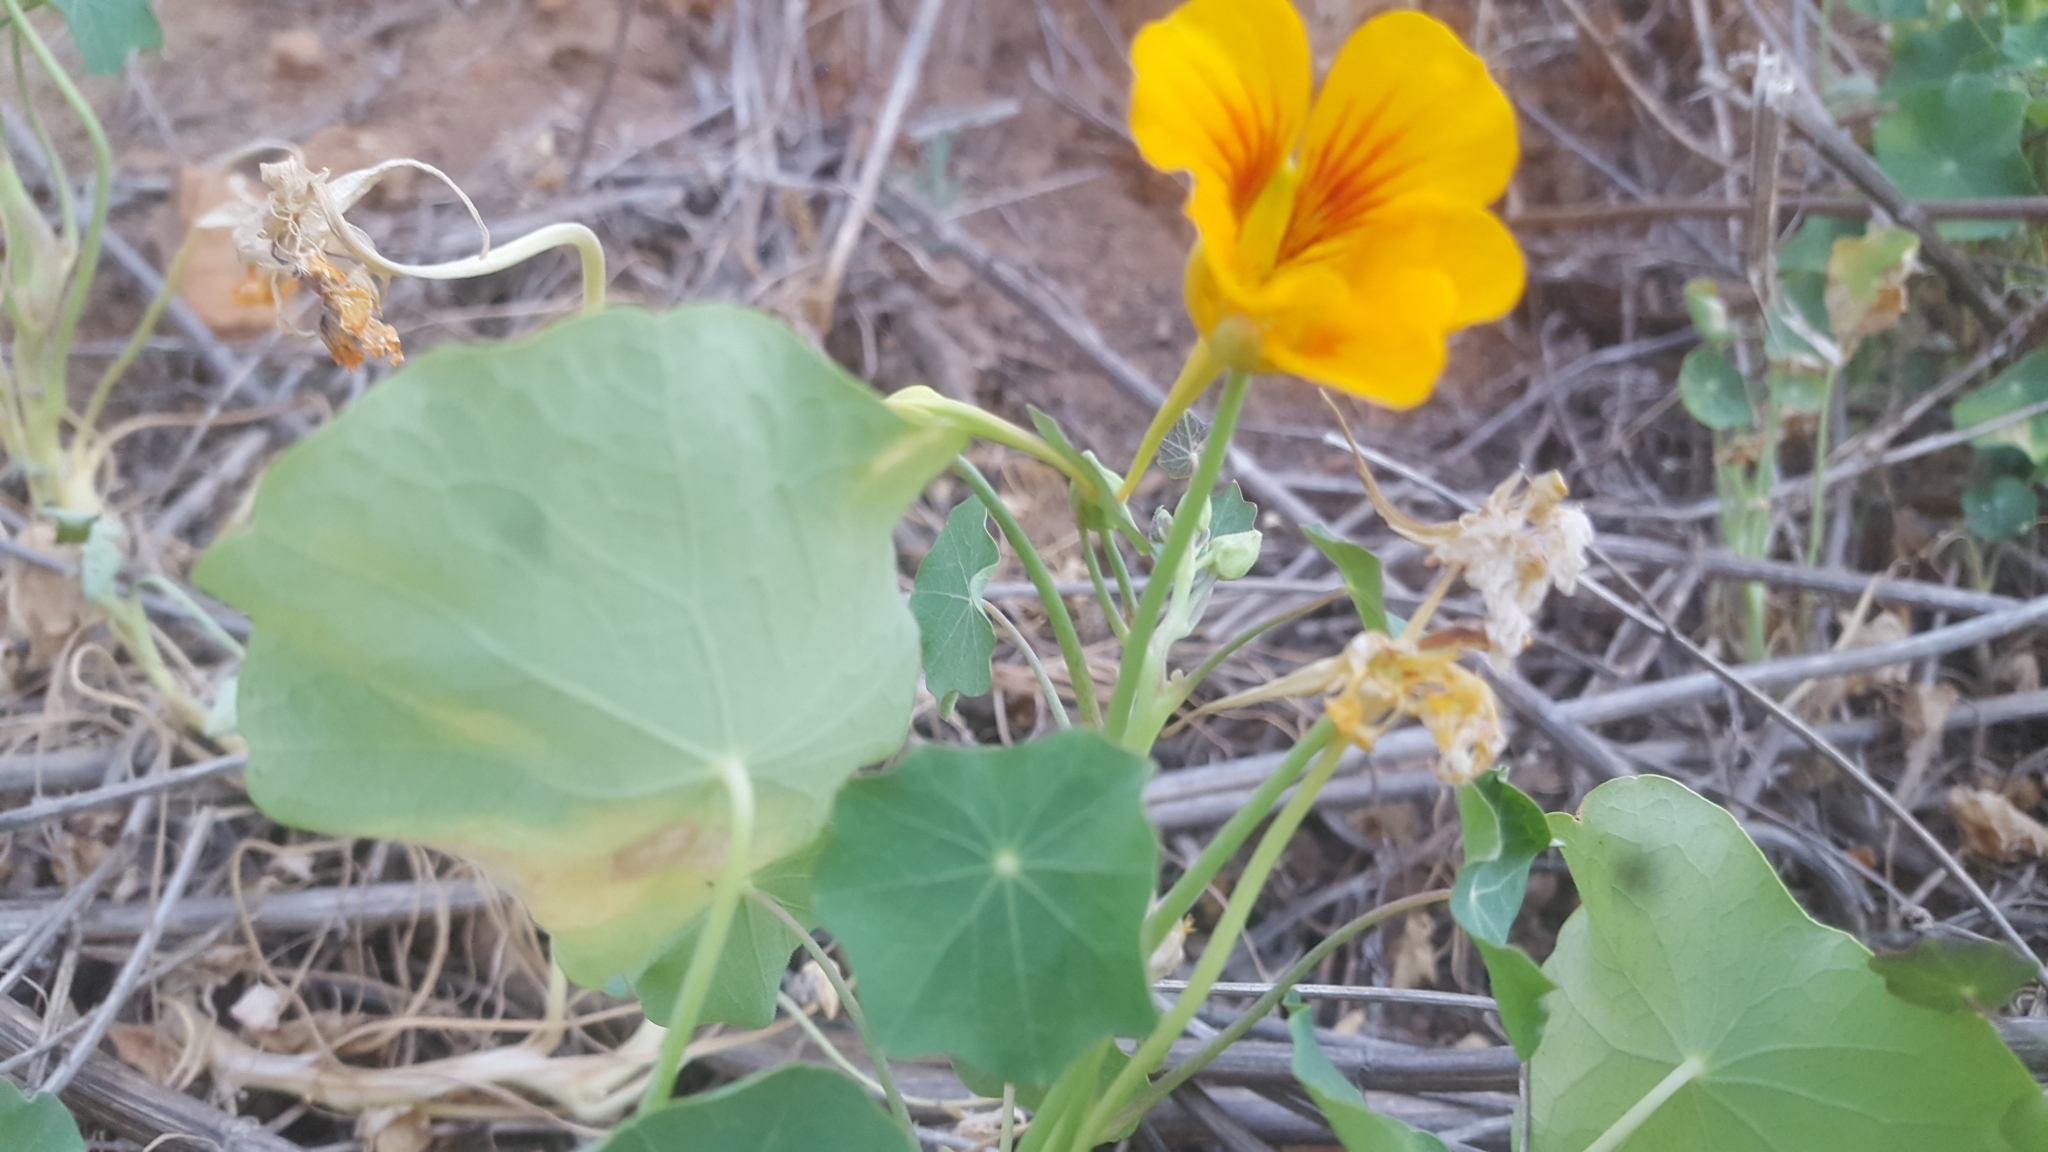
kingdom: Plantae
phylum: Tracheophyta
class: Magnoliopsida
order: Brassicales
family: Tropaeolaceae
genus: Tropaeolum
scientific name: Tropaeolum majus
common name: Nasturtium
